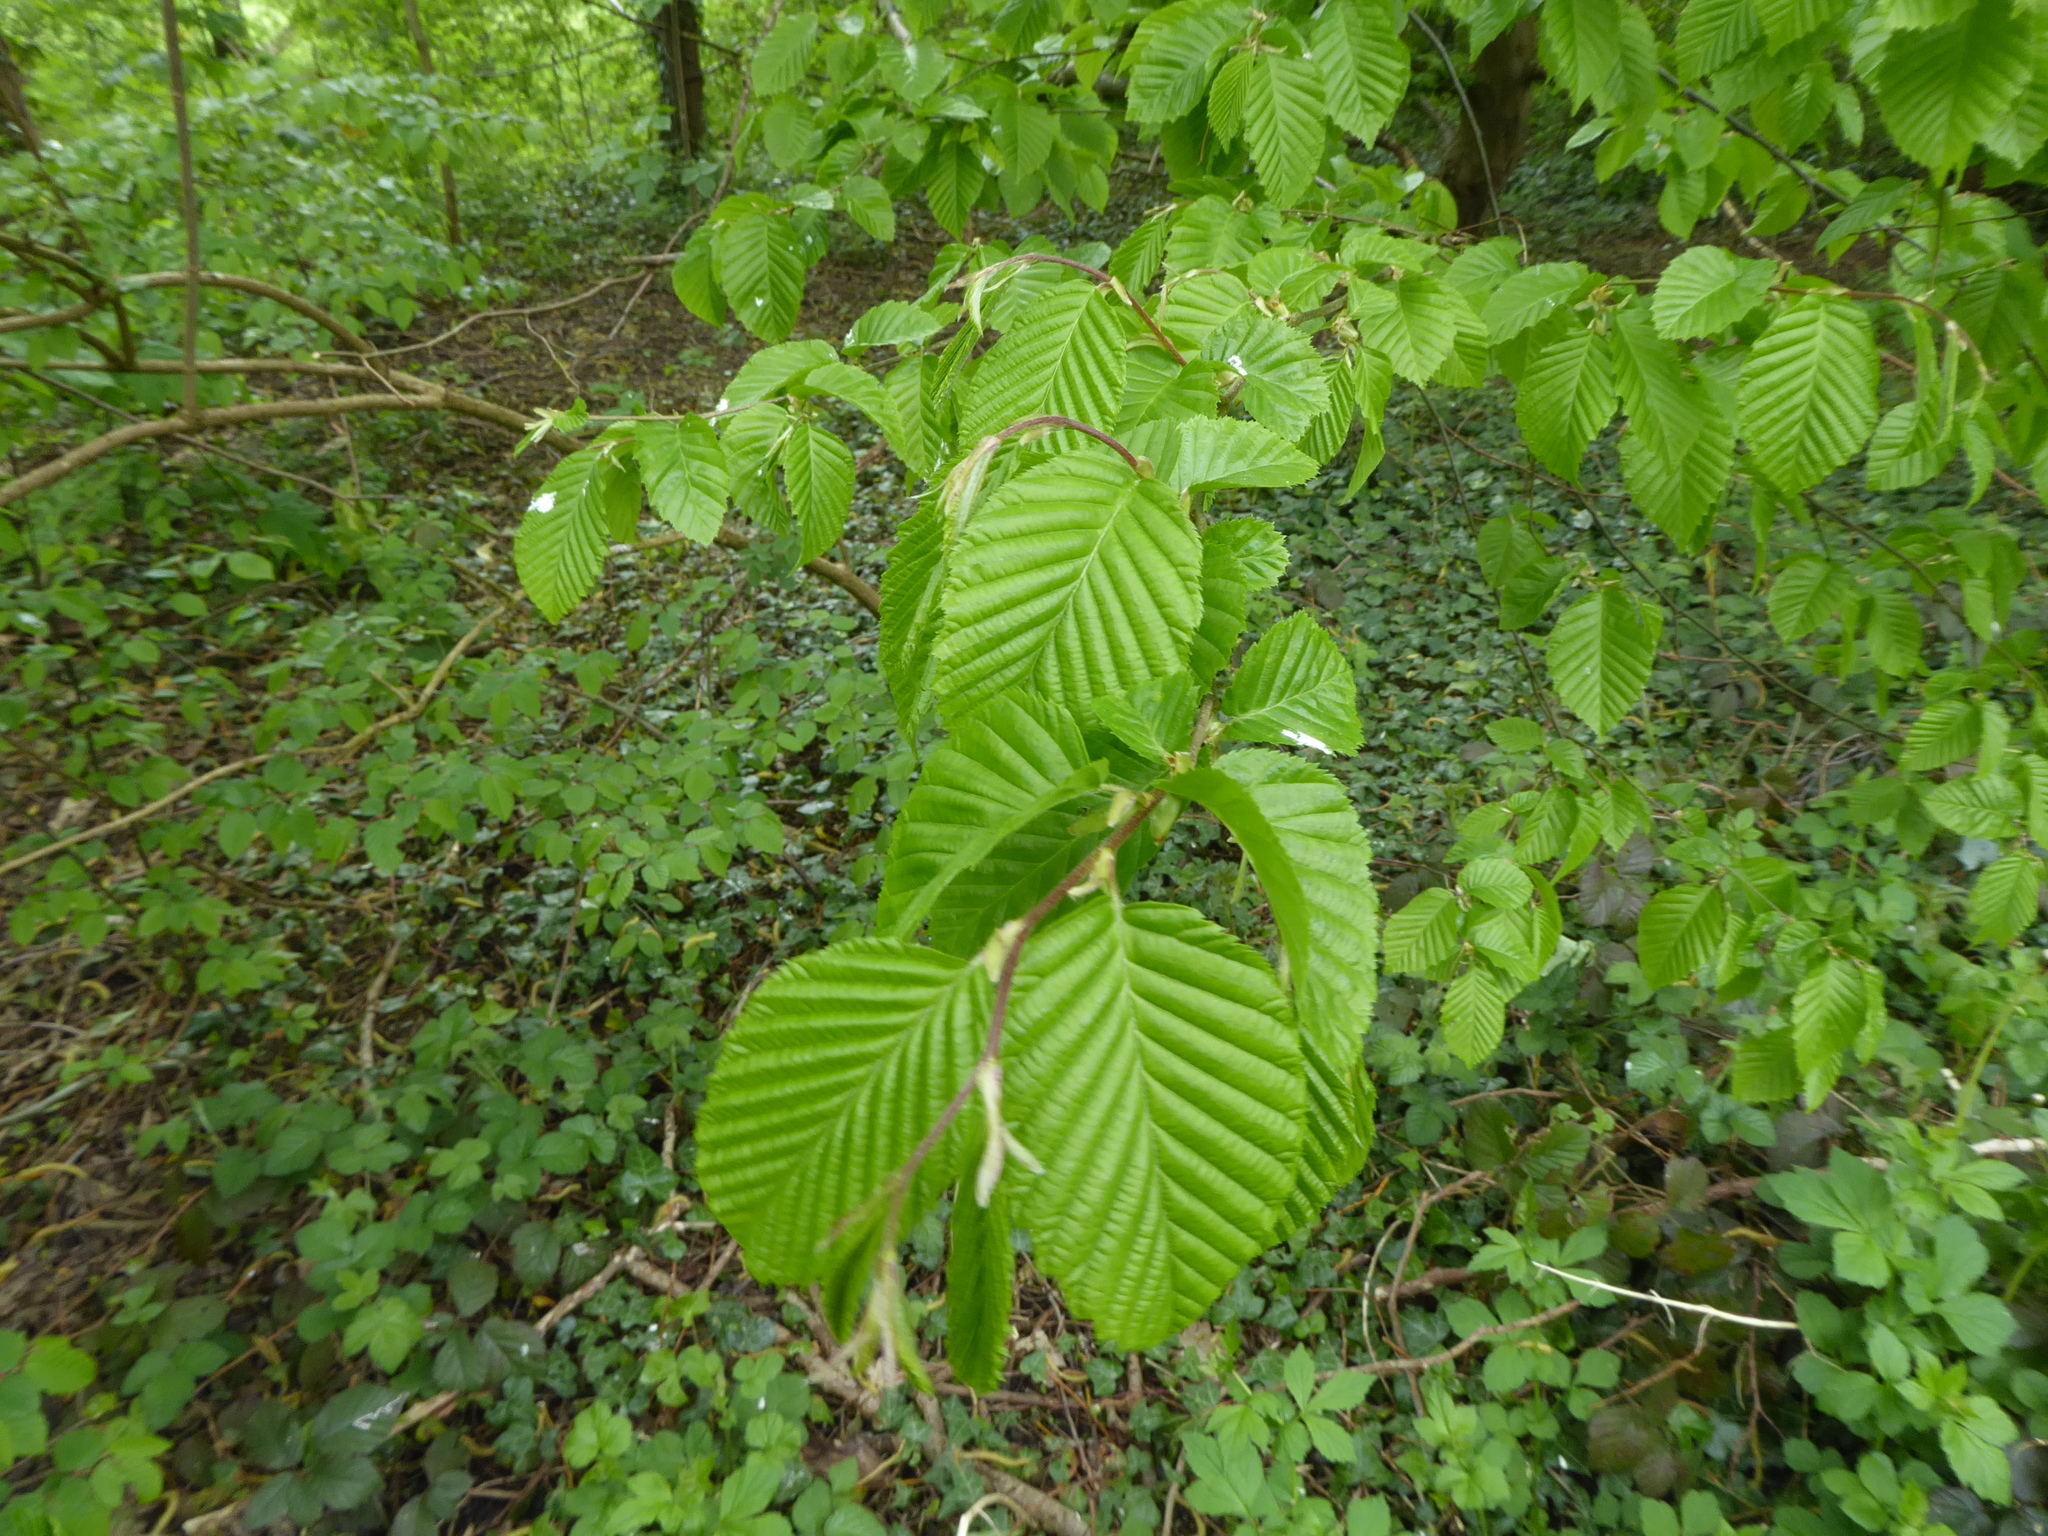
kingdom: Plantae
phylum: Tracheophyta
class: Magnoliopsida
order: Fagales
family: Betulaceae
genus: Carpinus
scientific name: Carpinus betulus
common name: Hornbeam
